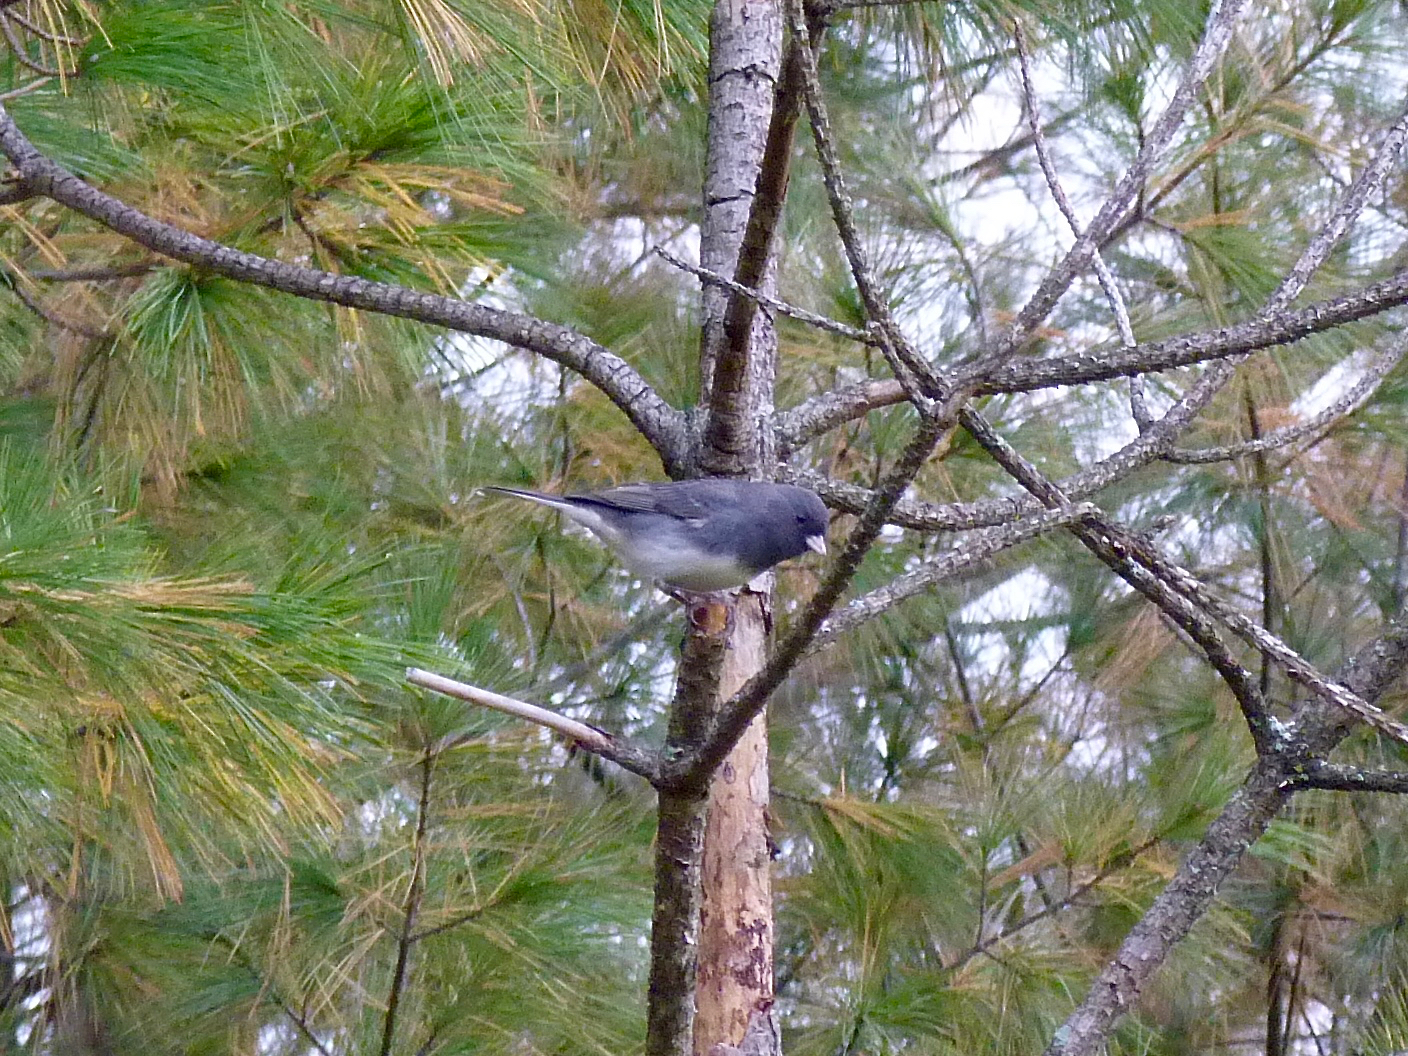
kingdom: Animalia
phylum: Chordata
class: Aves
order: Passeriformes
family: Passerellidae
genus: Junco
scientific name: Junco hyemalis
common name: Dark-eyed junco
